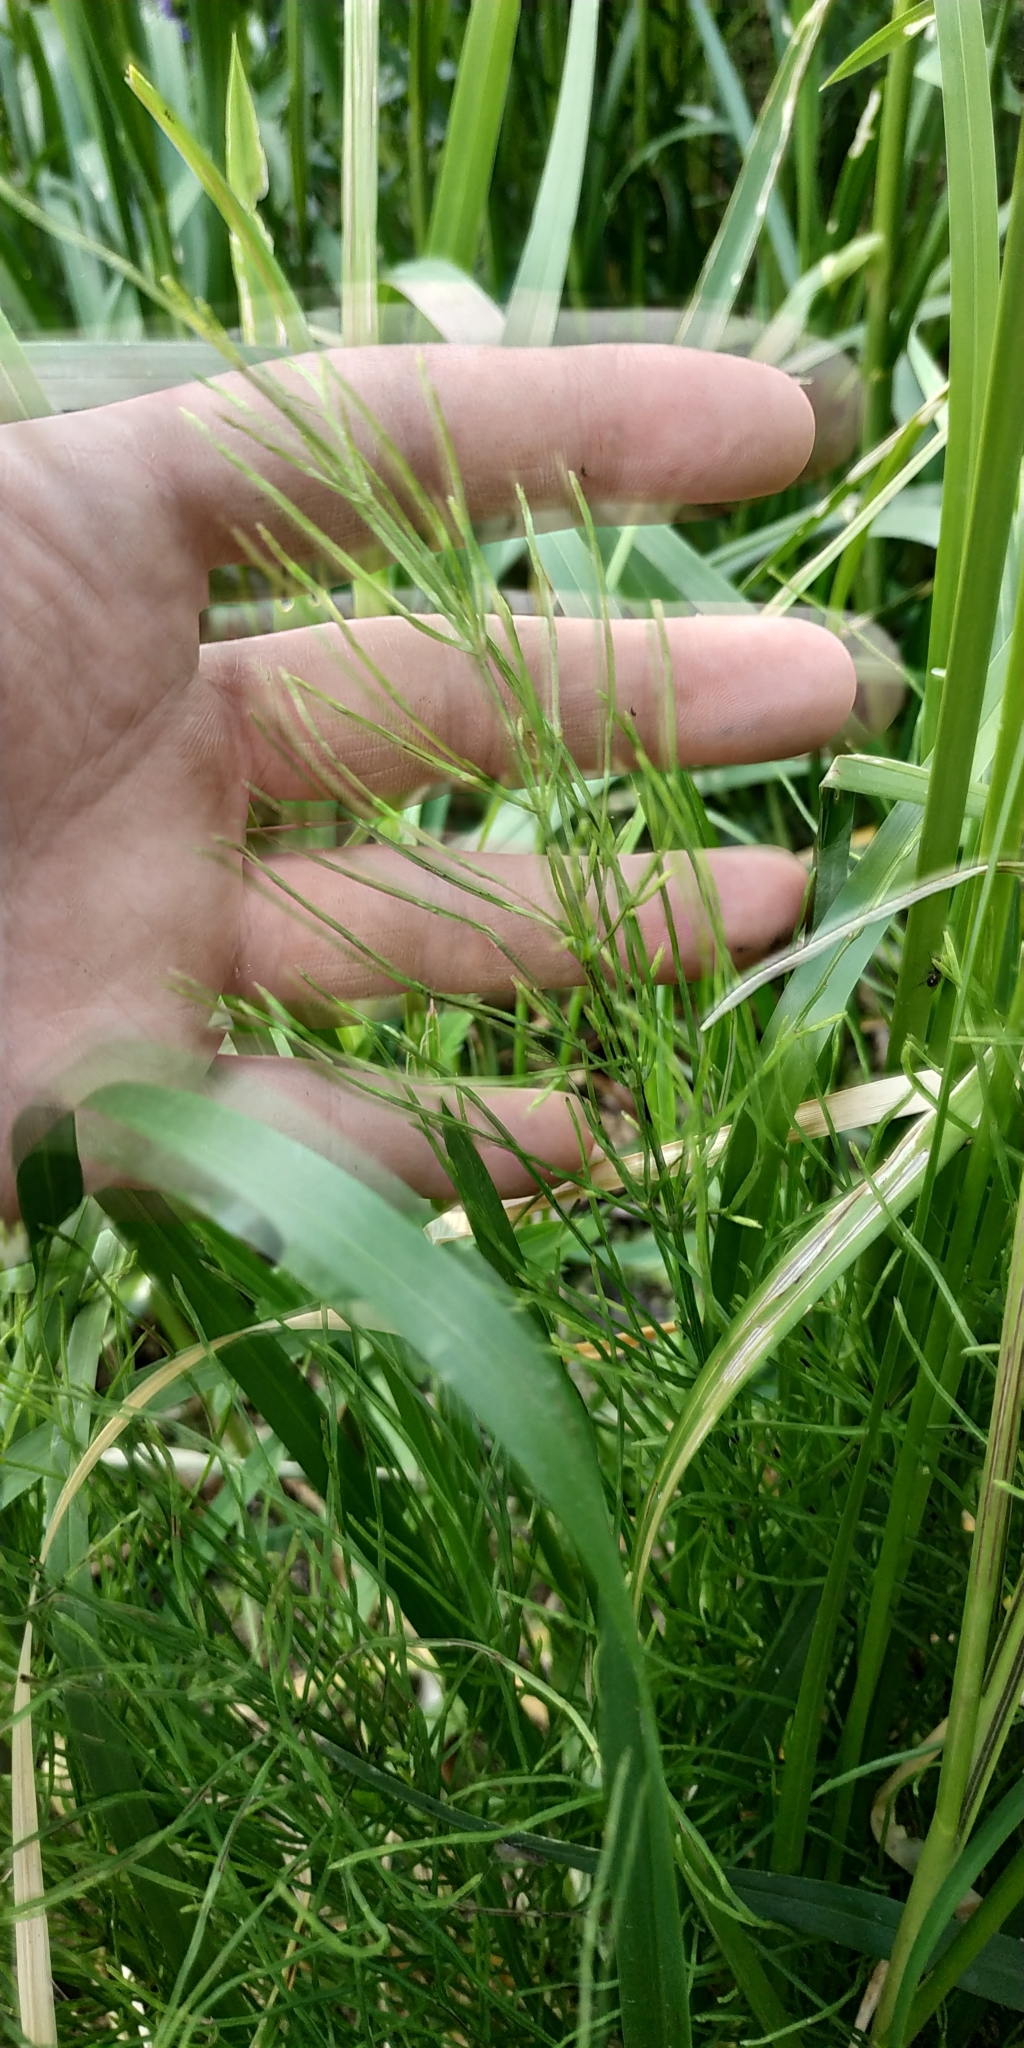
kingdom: Plantae
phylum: Tracheophyta
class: Polypodiopsida
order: Equisetales
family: Equisetaceae
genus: Equisetum
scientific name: Equisetum arvense
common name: Field horsetail
